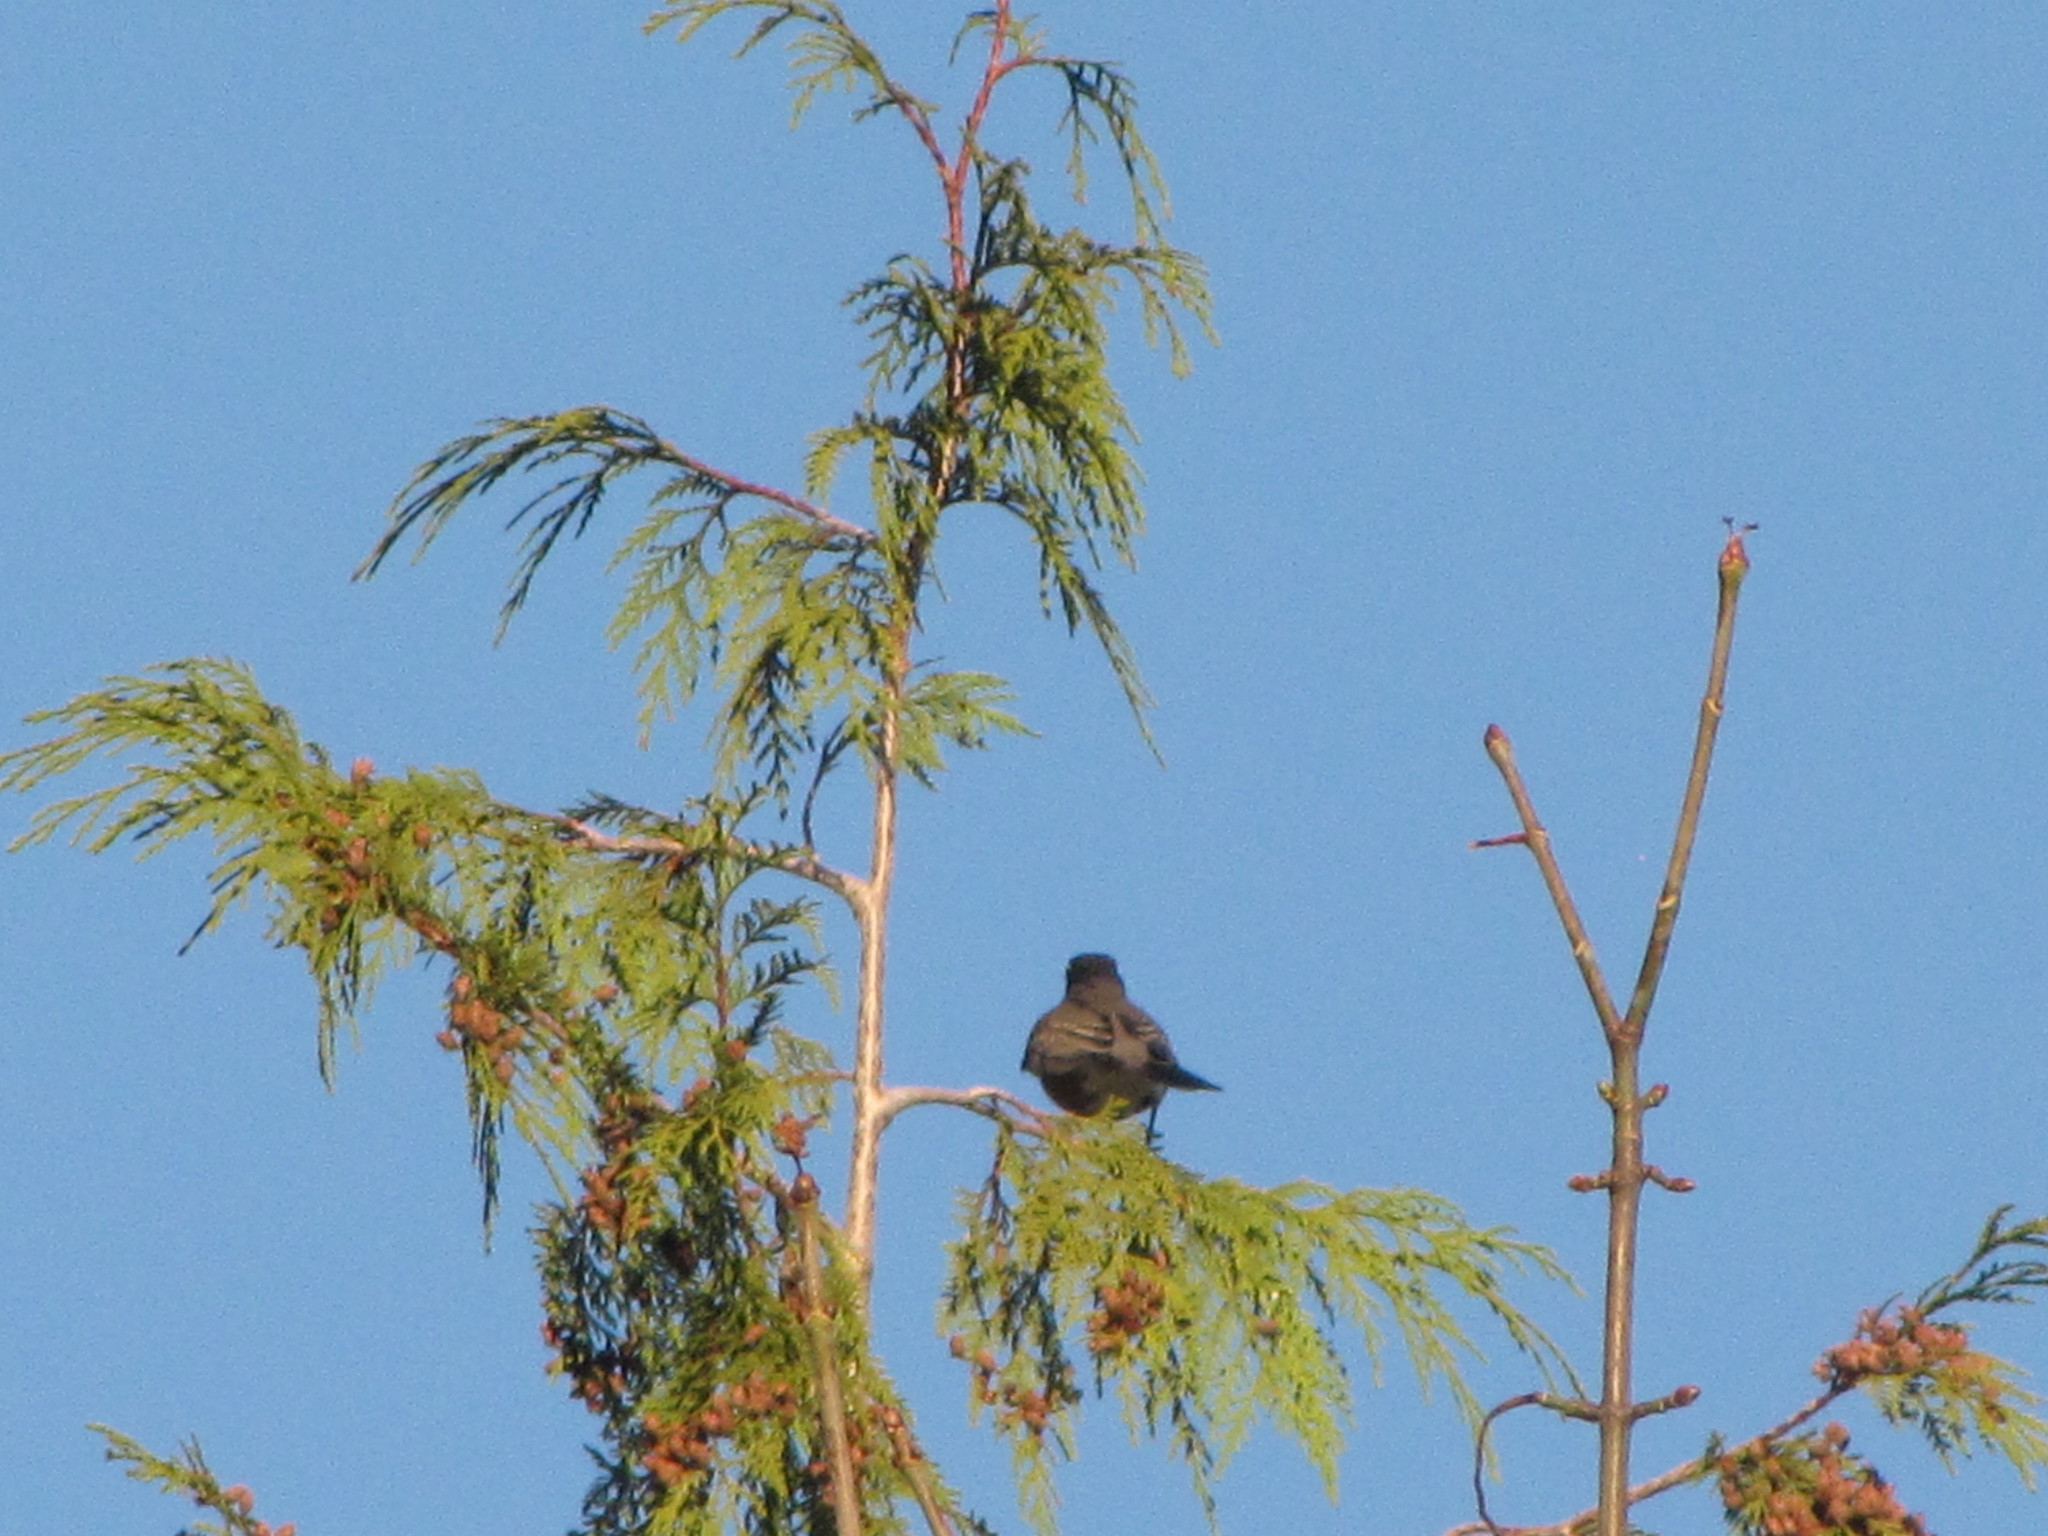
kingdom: Animalia
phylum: Chordata
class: Aves
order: Passeriformes
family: Turdidae
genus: Turdus
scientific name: Turdus migratorius
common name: American robin
